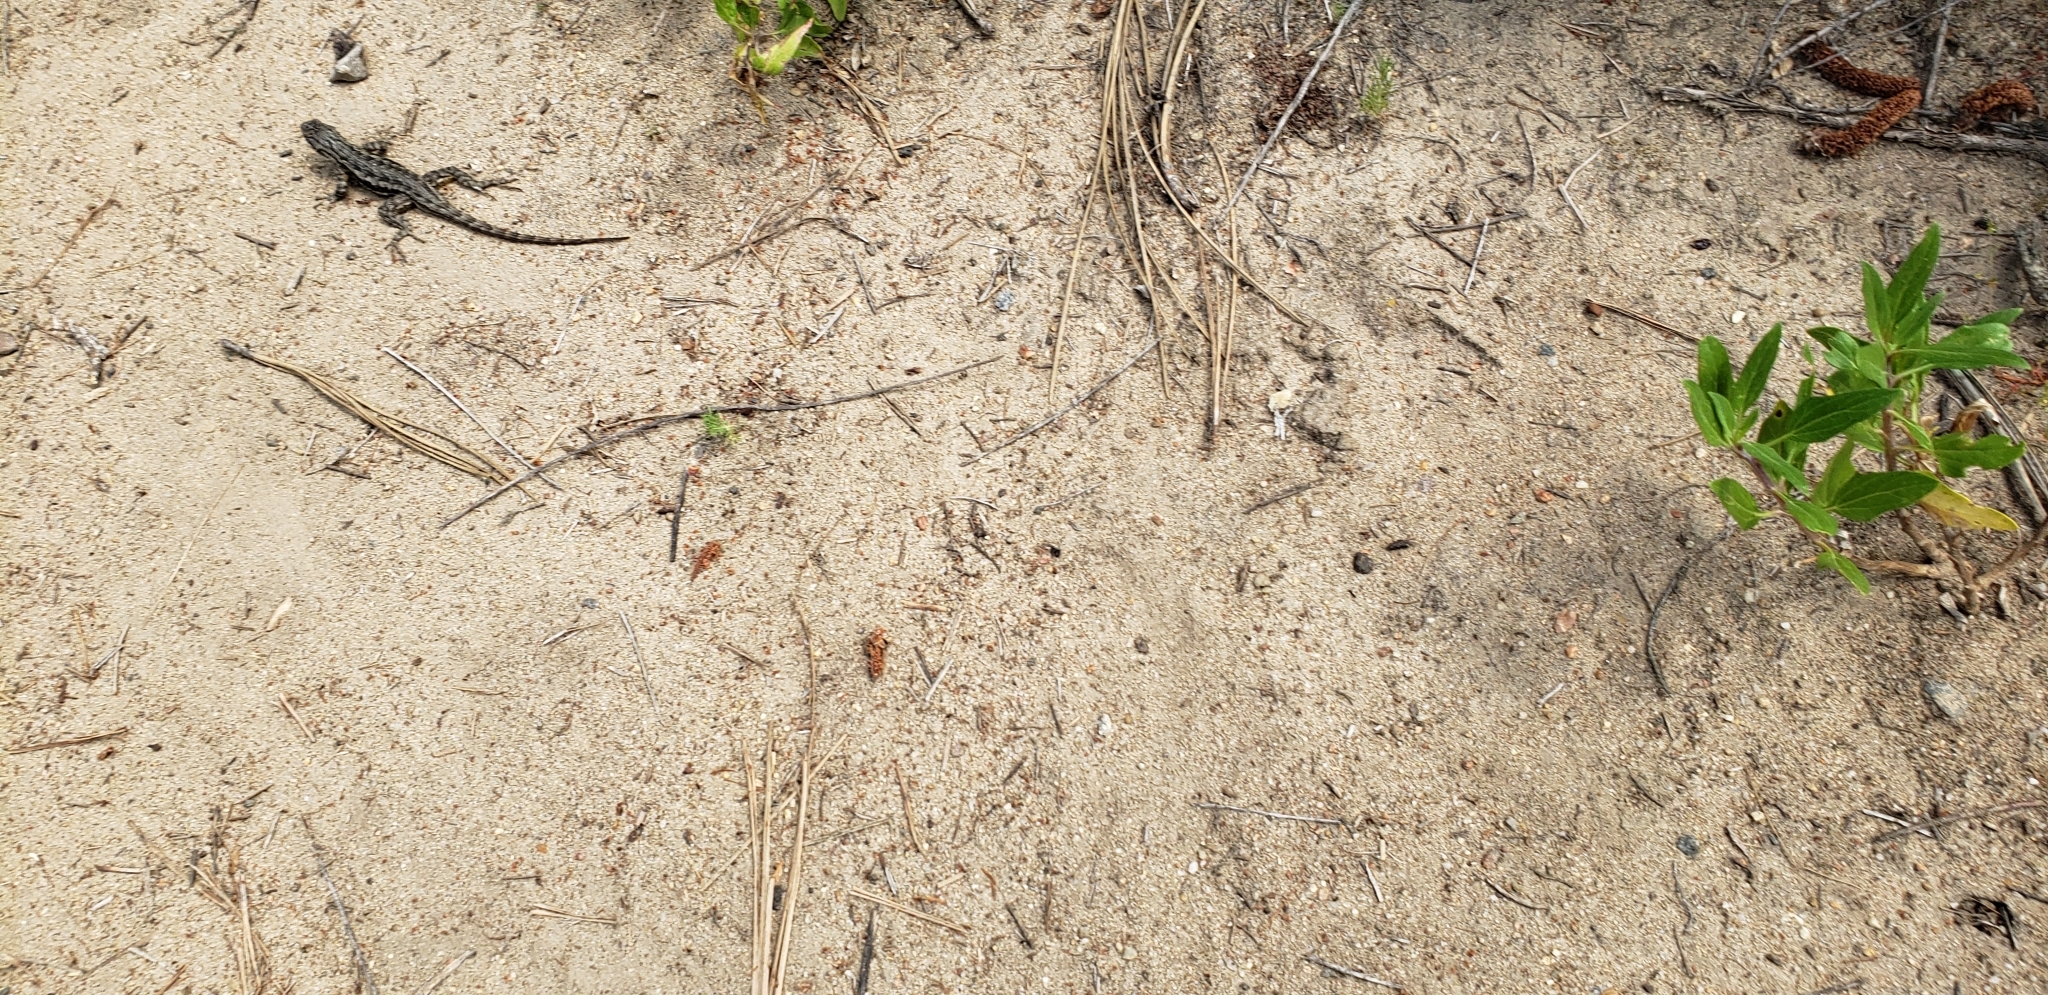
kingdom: Animalia
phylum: Chordata
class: Squamata
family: Phrynosomatidae
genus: Sceloporus
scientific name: Sceloporus occidentalis
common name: Western fence lizard
